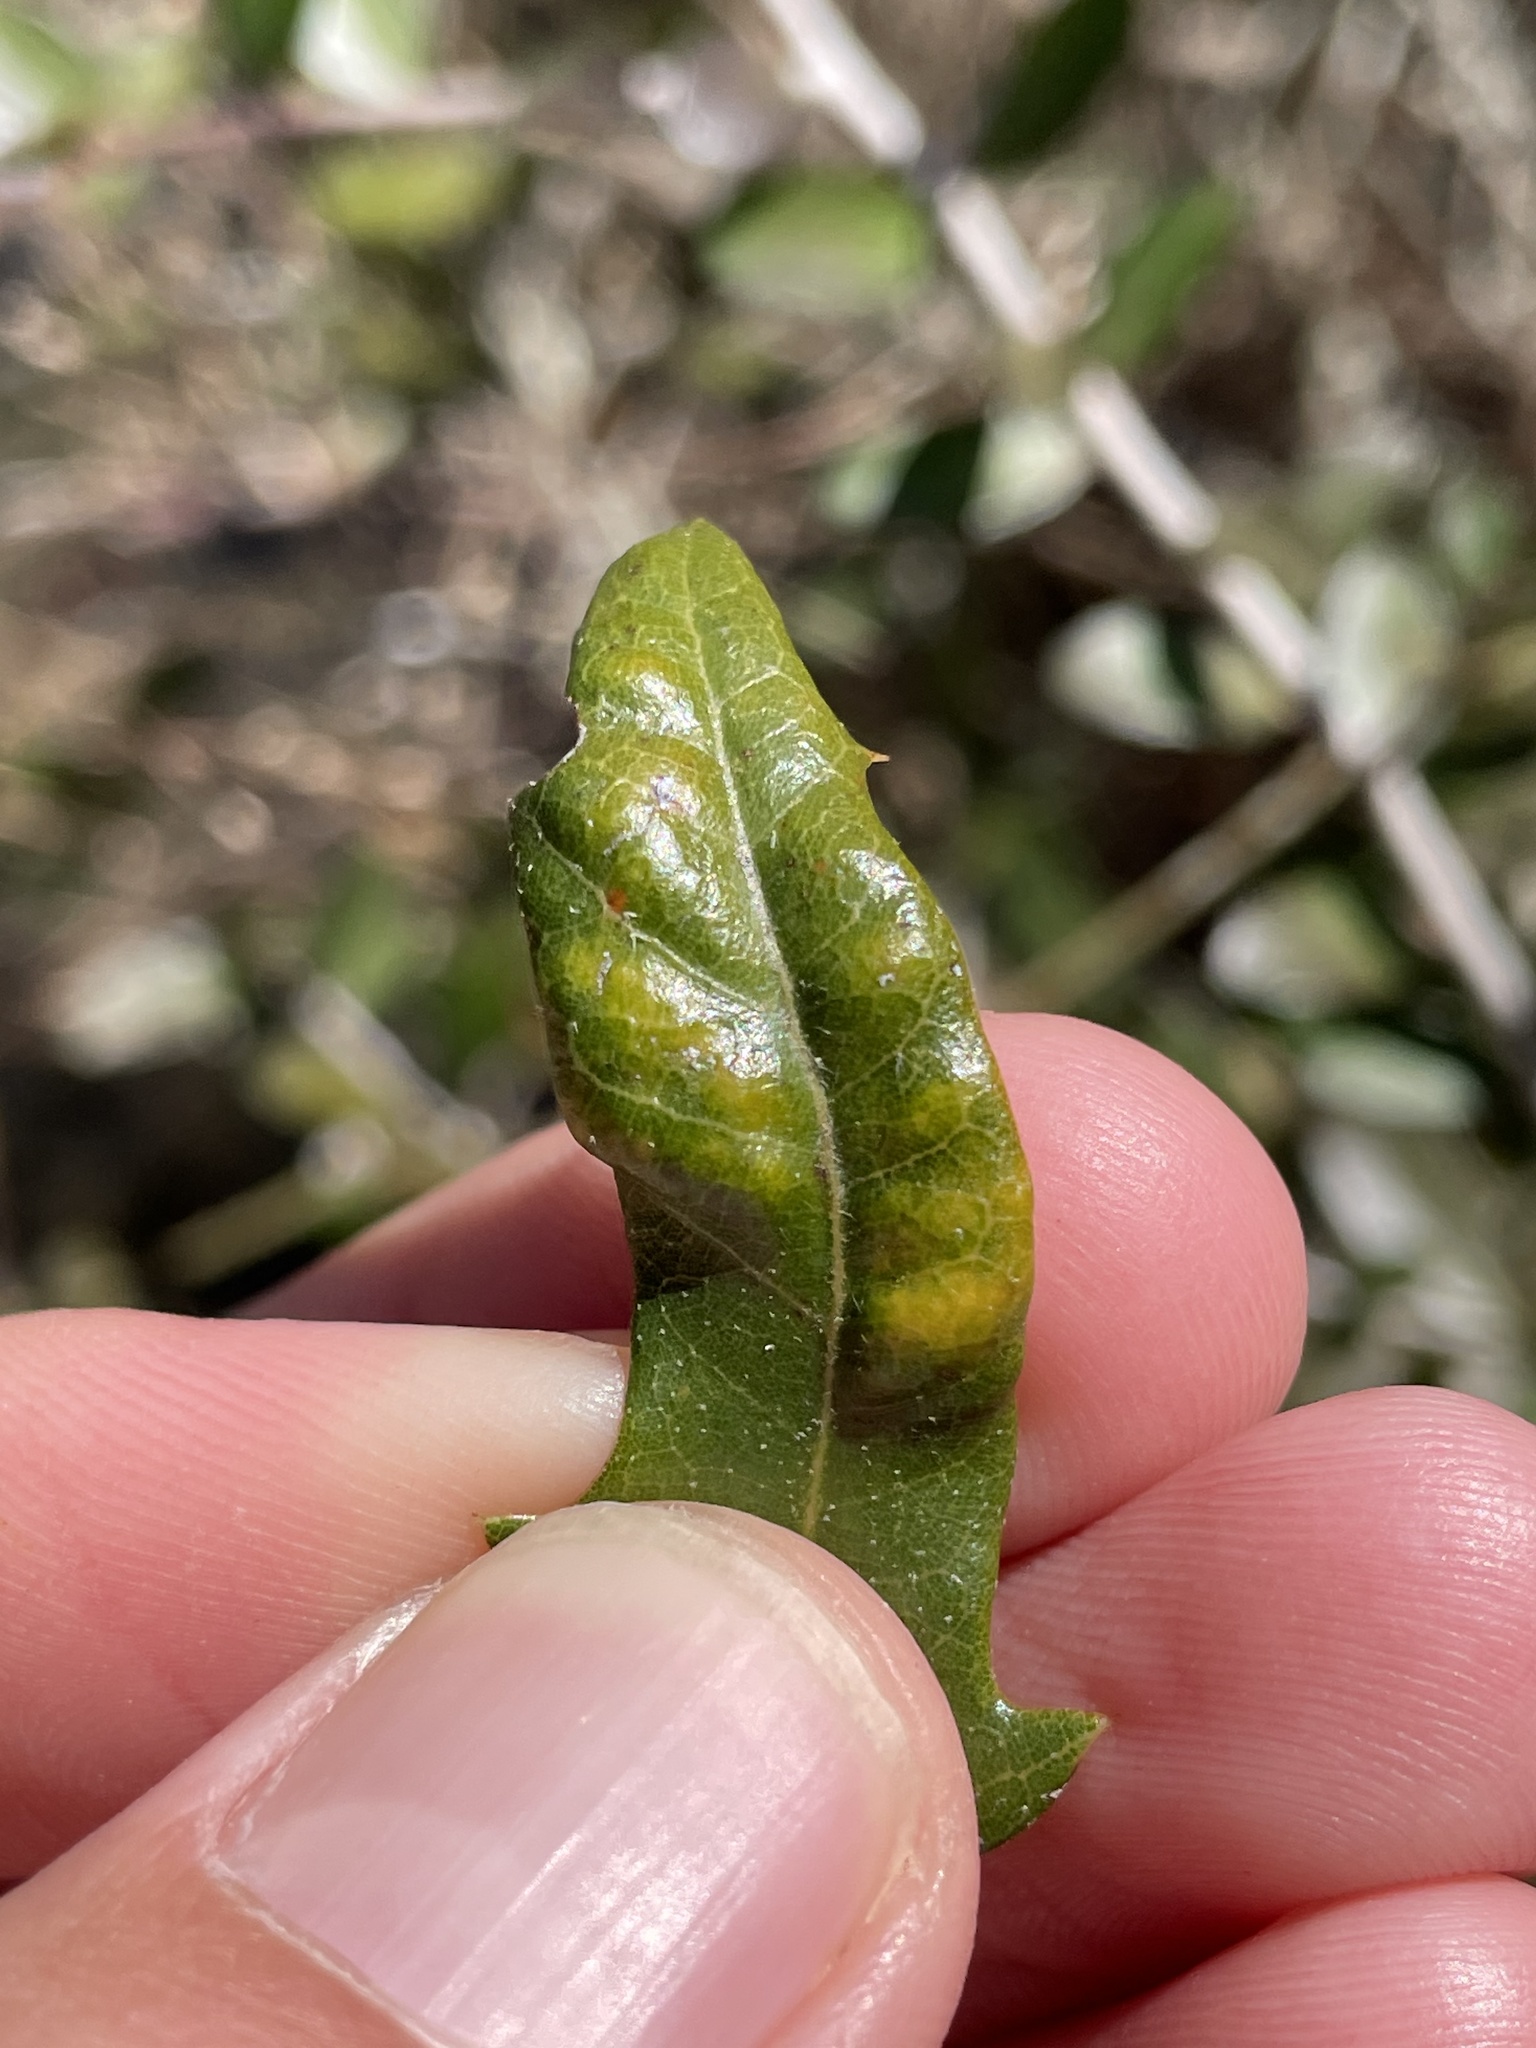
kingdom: Animalia
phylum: Arthropoda
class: Arachnida
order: Trombidiformes
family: Eriophyidae
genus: Aceria
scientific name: Aceria quercina
